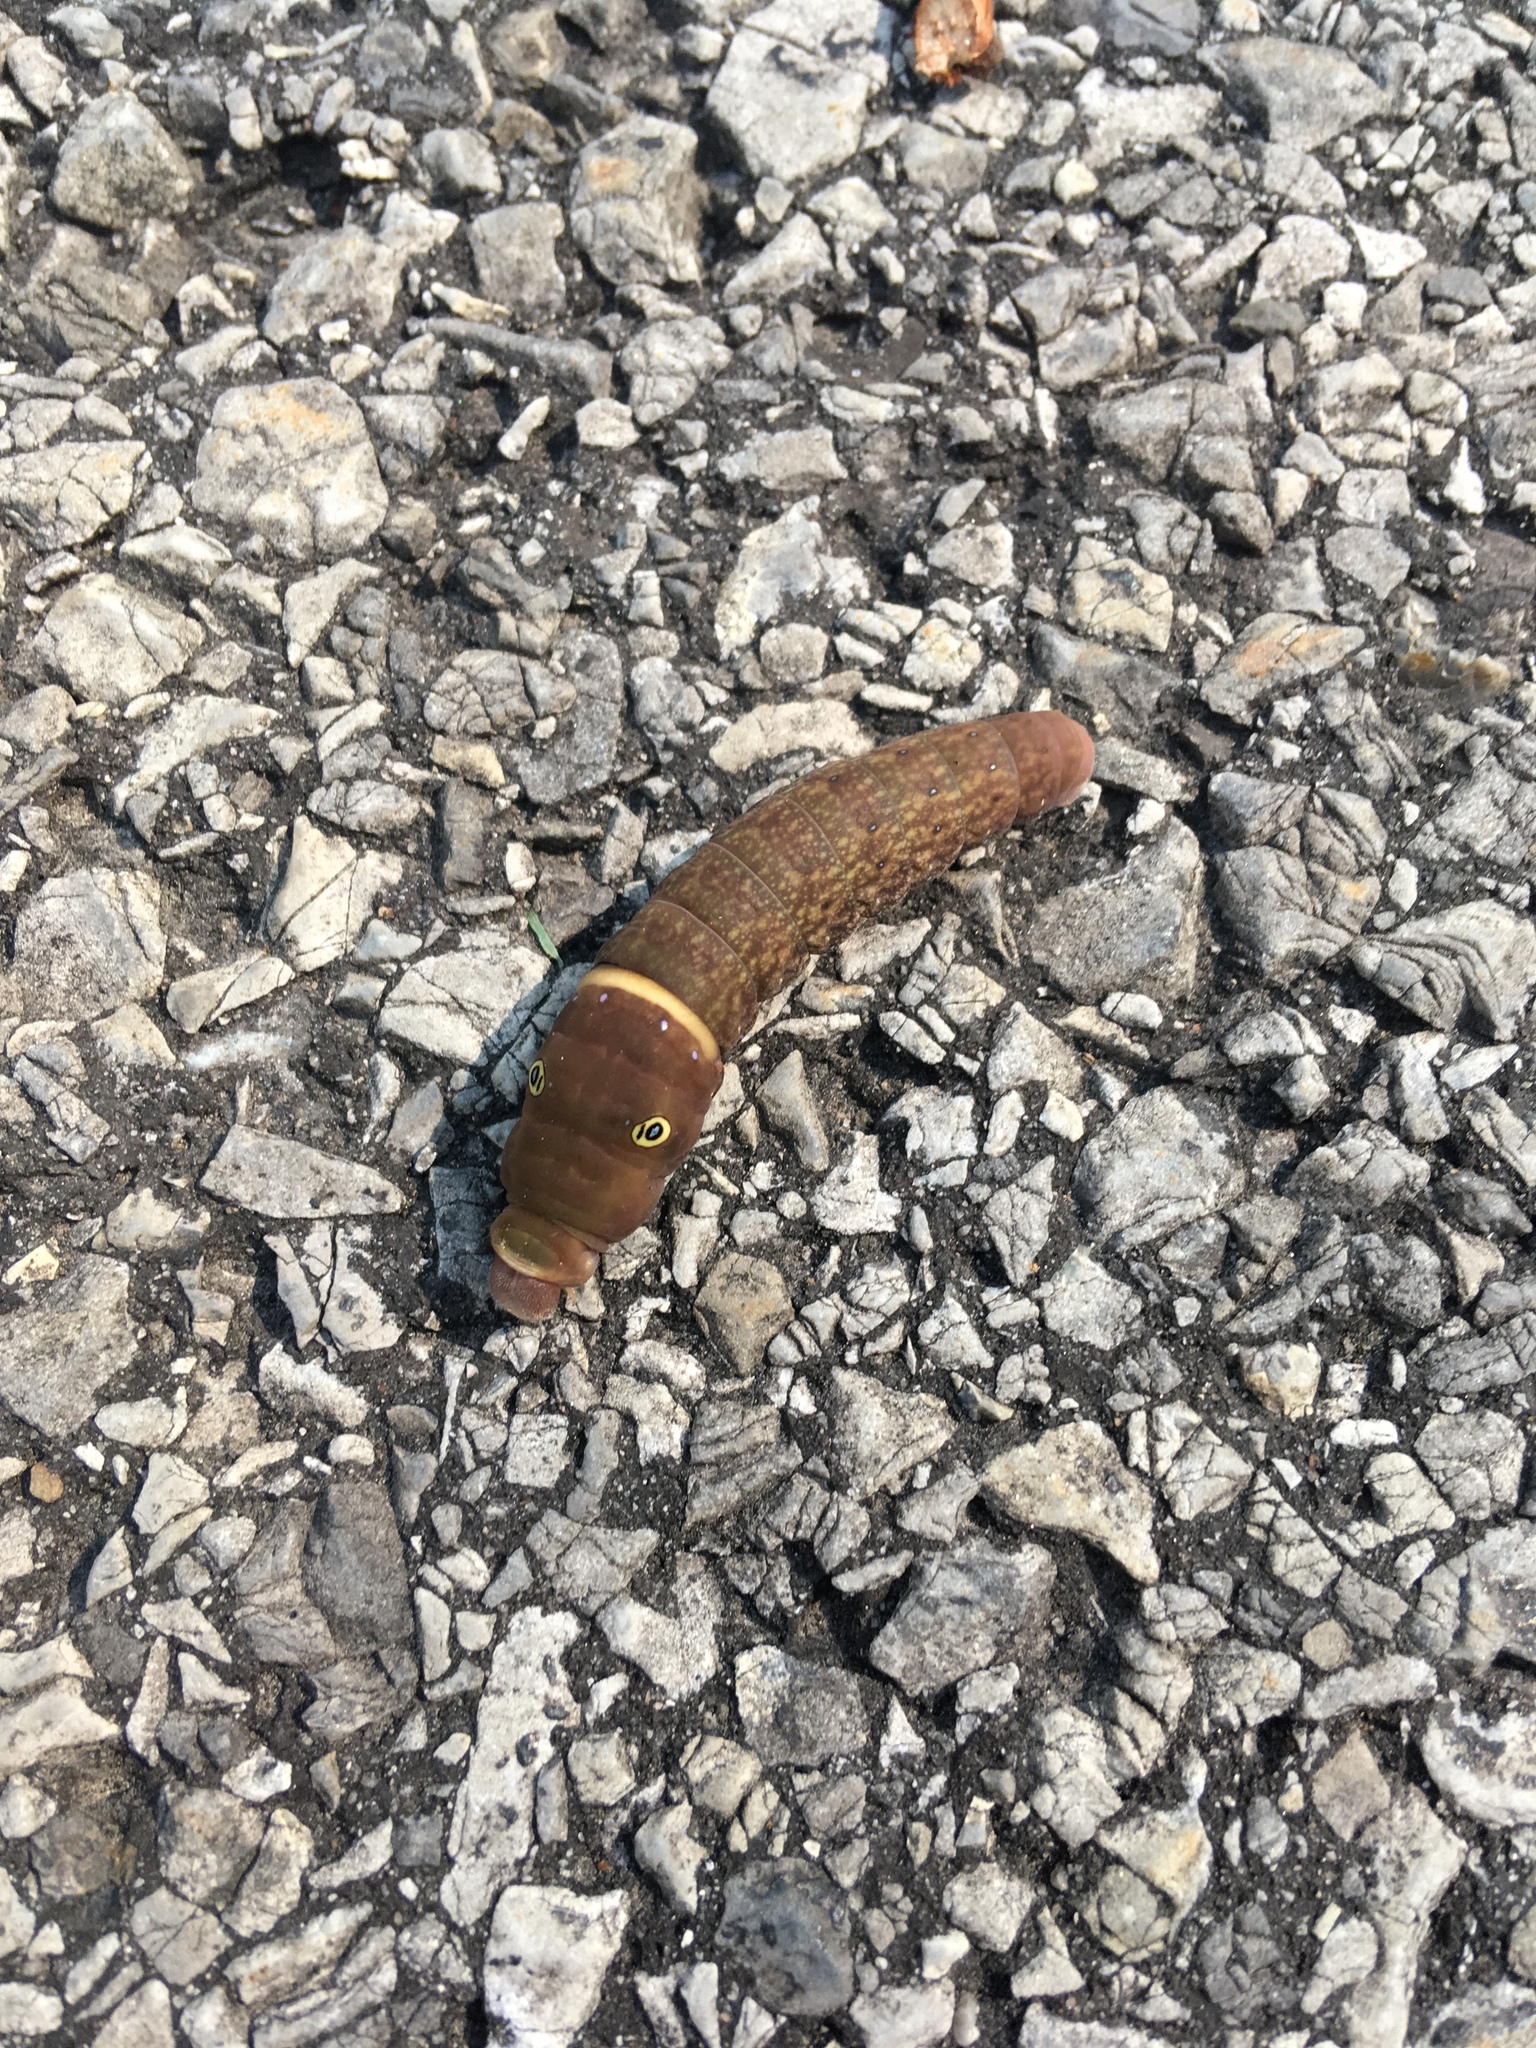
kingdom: Animalia
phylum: Arthropoda
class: Insecta
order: Lepidoptera
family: Papilionidae
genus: Papilio
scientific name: Papilio glaucus
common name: Tiger swallowtail
